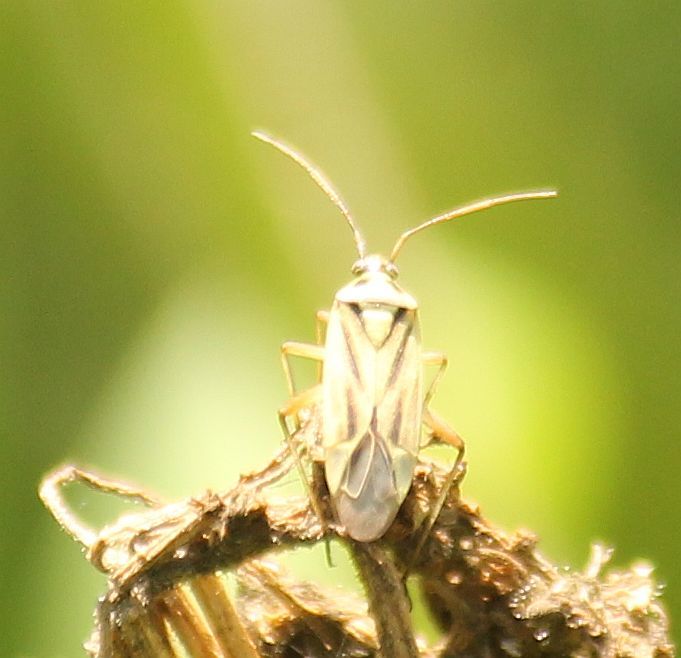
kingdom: Animalia
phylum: Arthropoda
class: Insecta
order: Hemiptera
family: Miridae
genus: Stenotus
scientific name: Stenotus binotatus
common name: Plant bug
